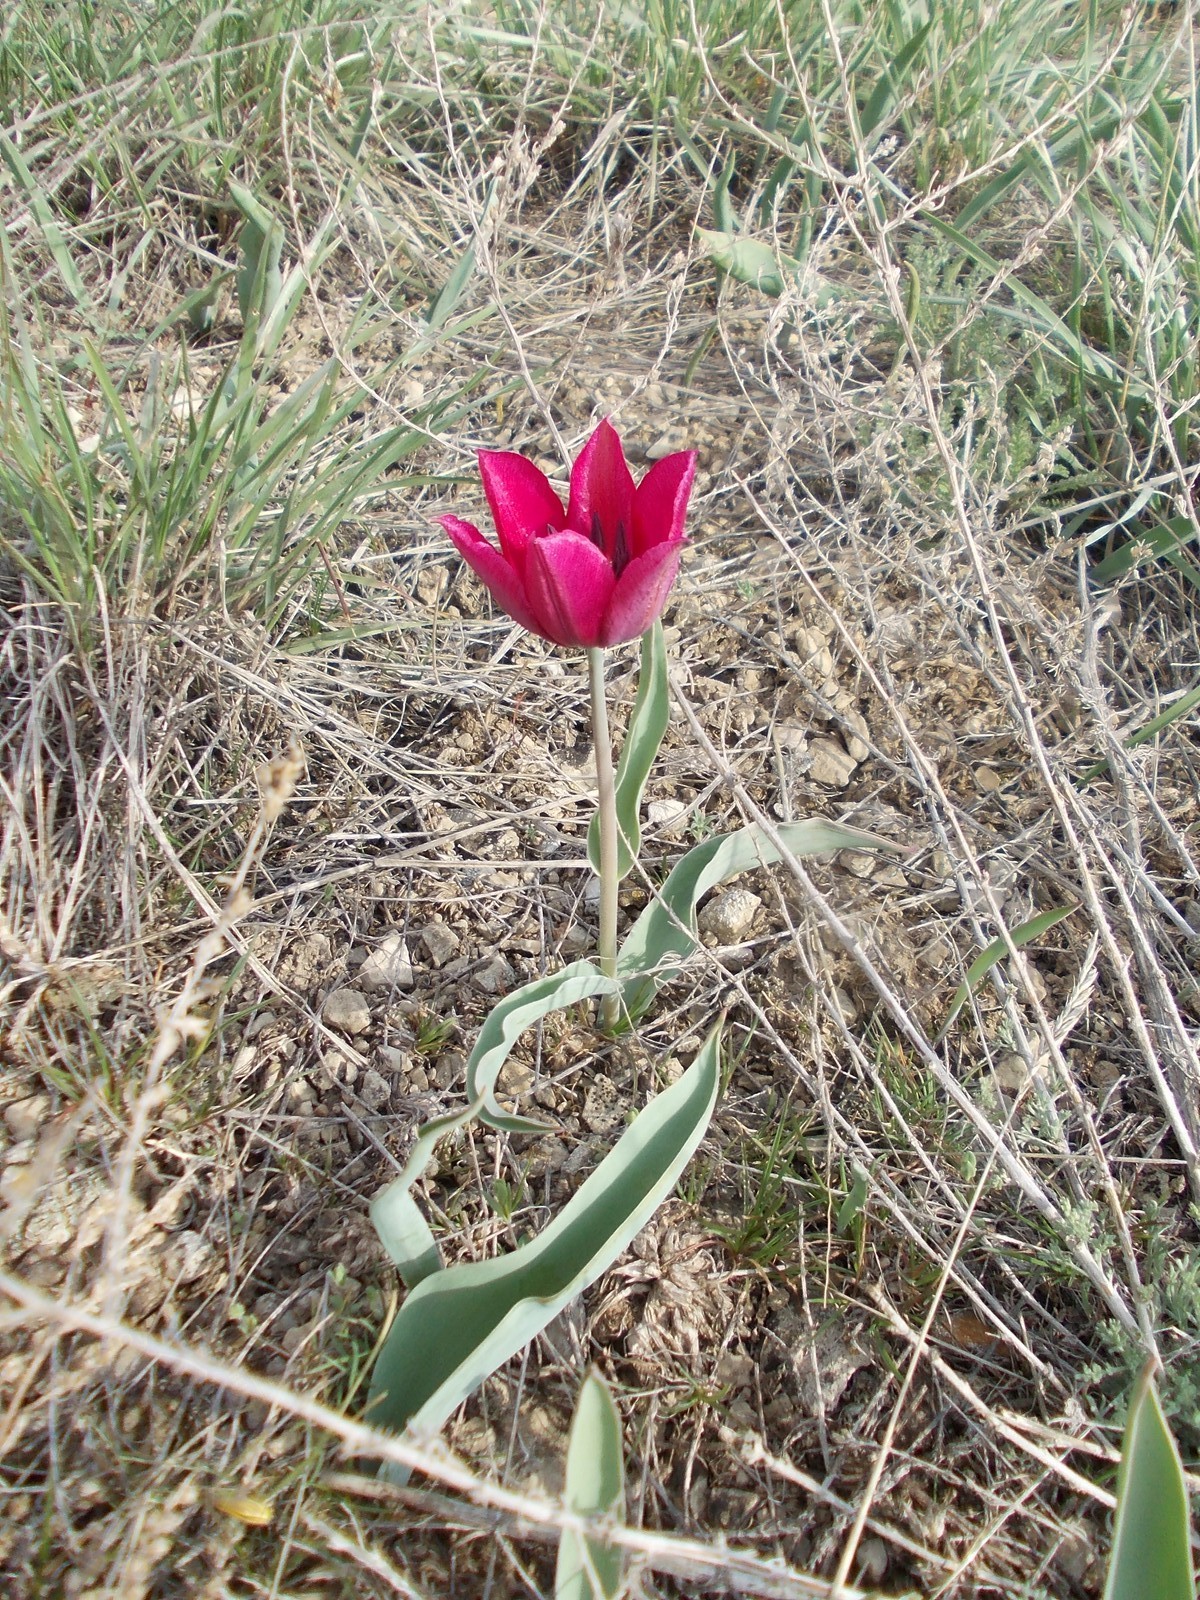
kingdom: Plantae
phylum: Tracheophyta
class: Liliopsida
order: Liliales
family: Liliaceae
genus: Tulipa
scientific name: Tulipa suaveolens
